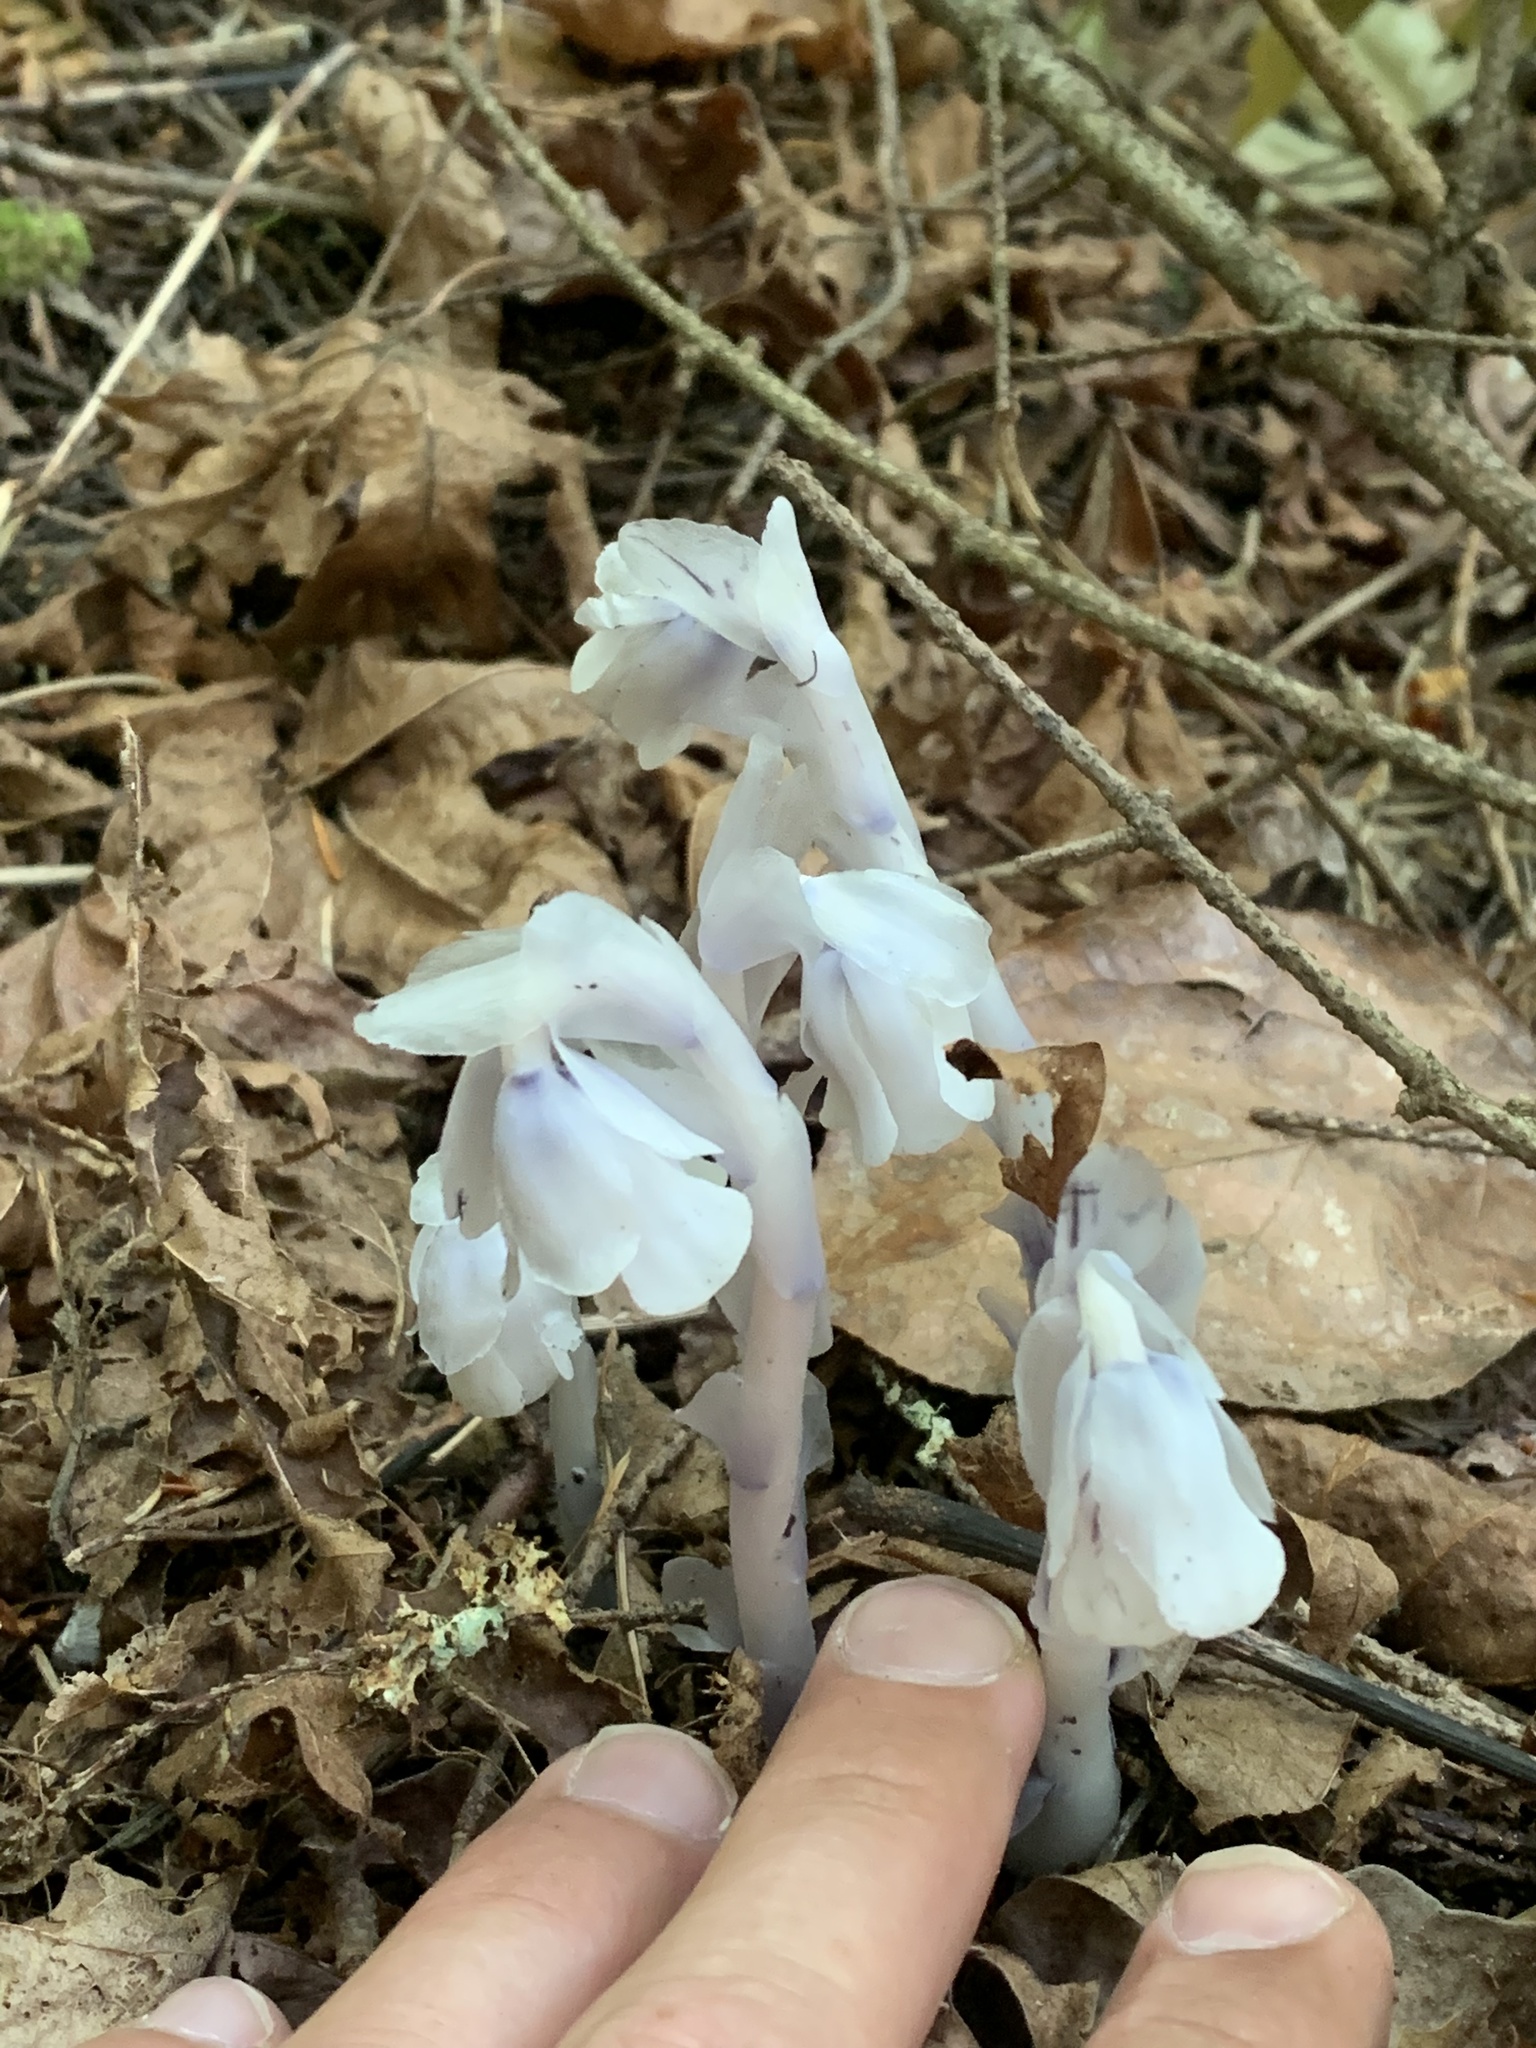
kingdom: Plantae
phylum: Tracheophyta
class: Magnoliopsida
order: Ericales
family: Ericaceae
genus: Monotropa
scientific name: Monotropa uniflora
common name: Convulsion root
